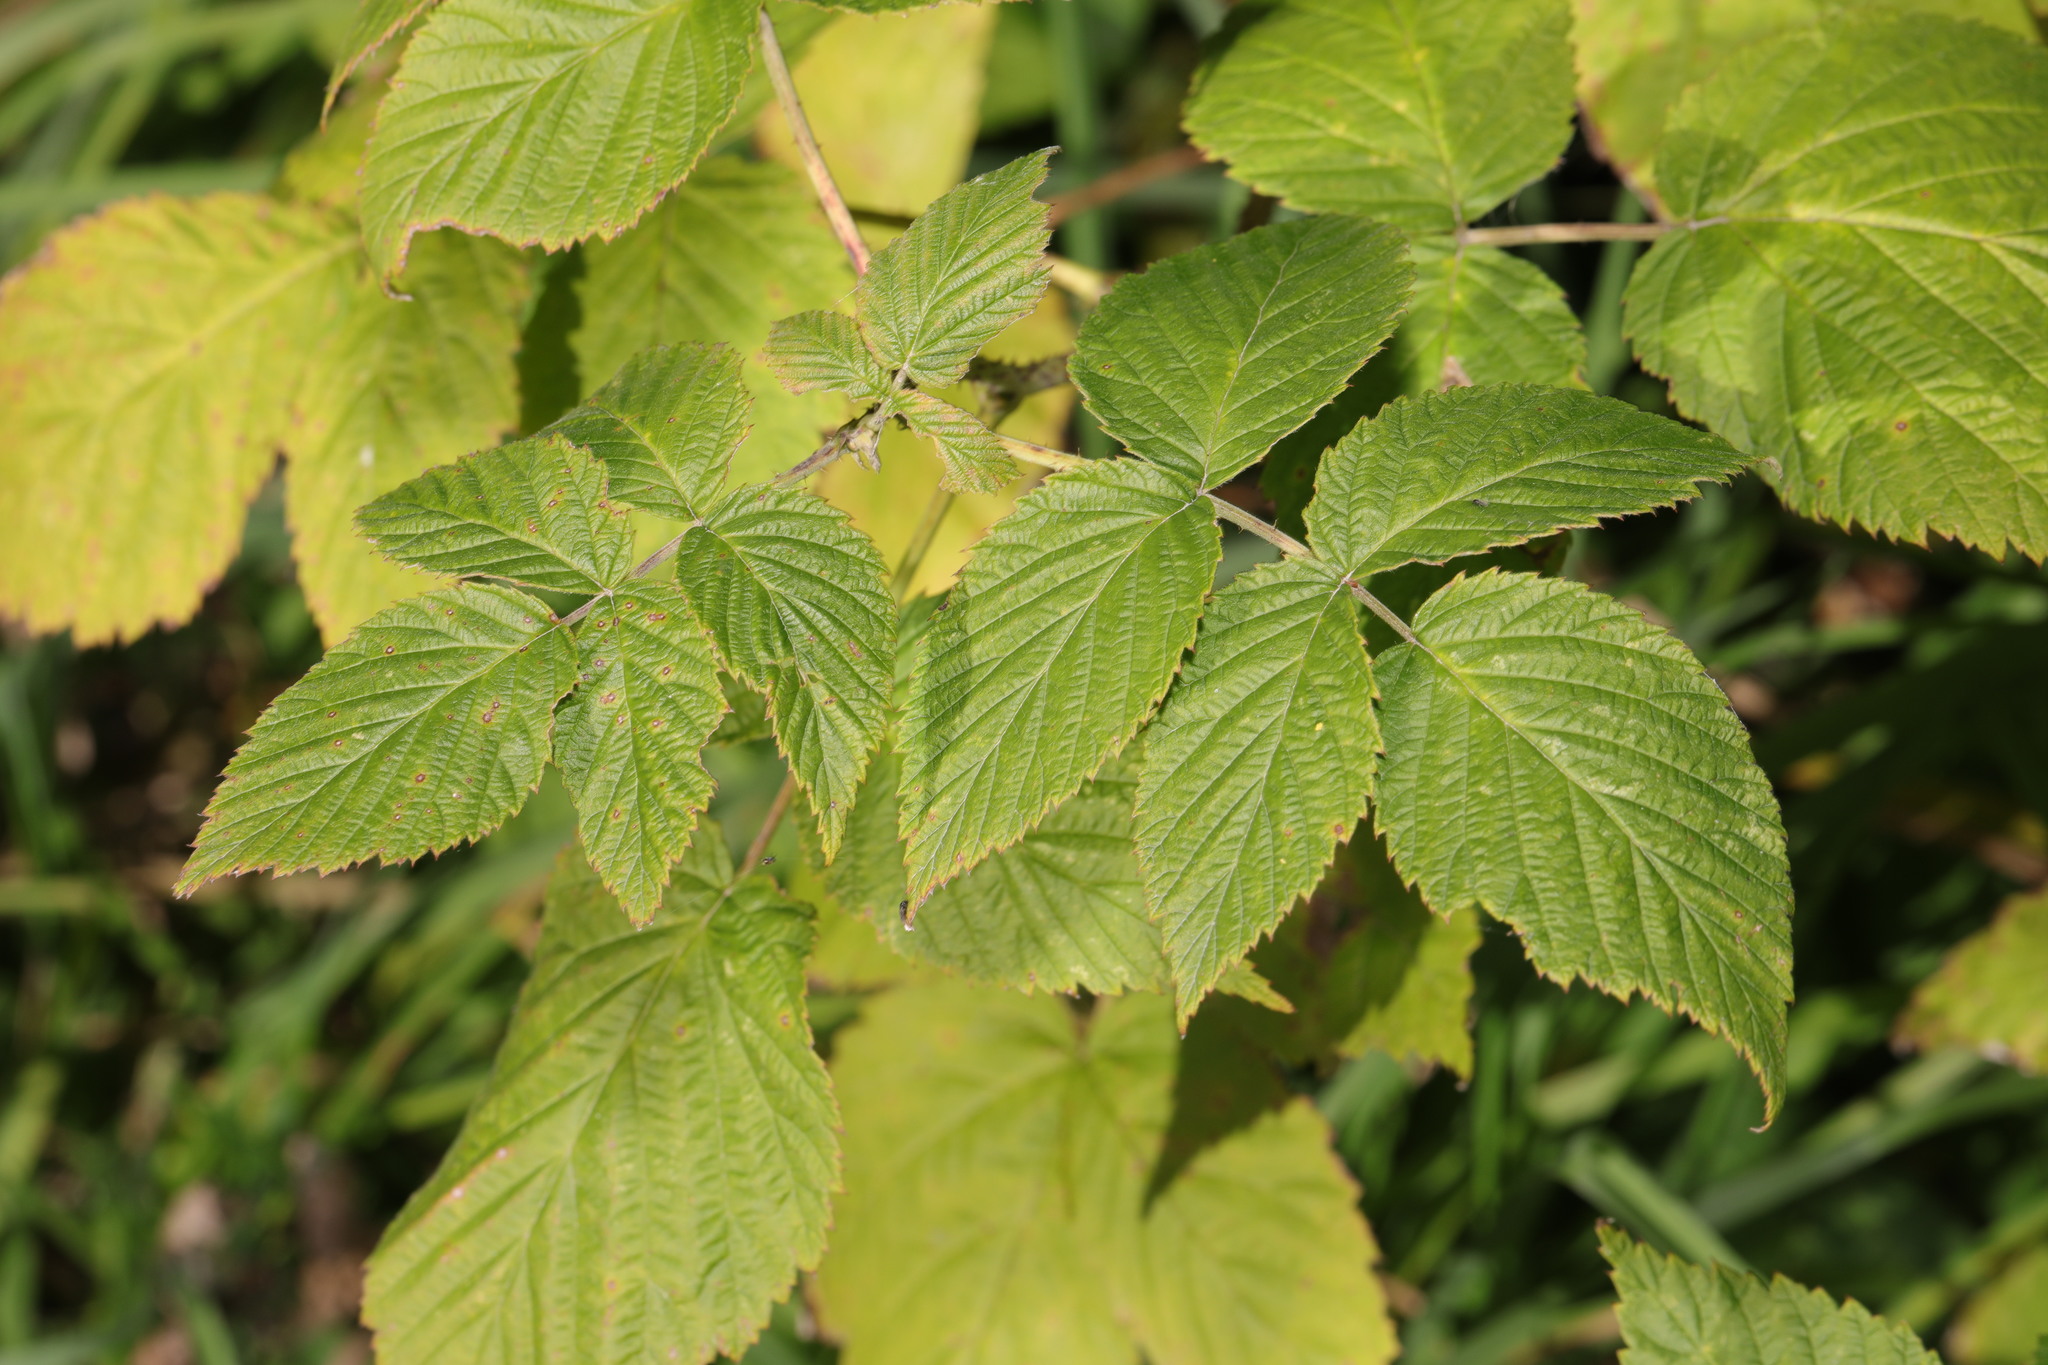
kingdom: Plantae
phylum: Tracheophyta
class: Magnoliopsida
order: Rosales
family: Rosaceae
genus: Rubus
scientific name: Rubus idaeus
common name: Raspberry
